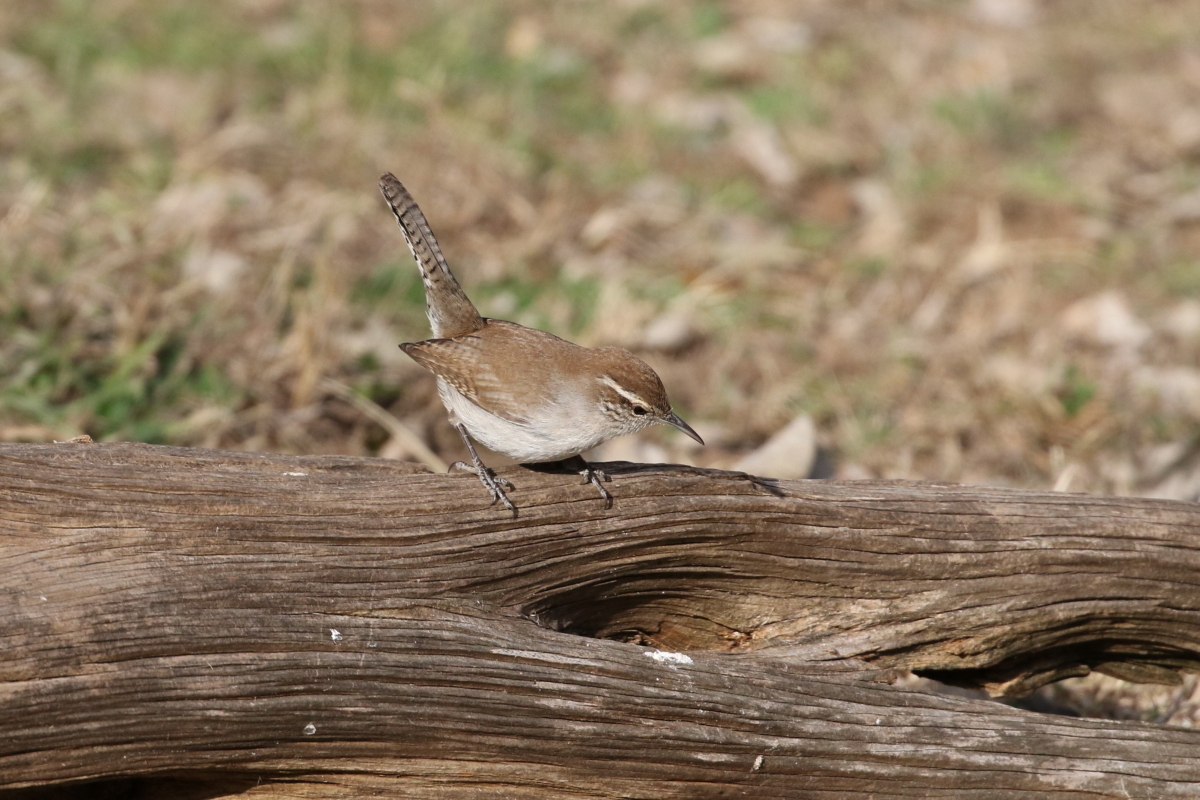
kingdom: Animalia
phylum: Chordata
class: Aves
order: Passeriformes
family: Troglodytidae
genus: Thryomanes
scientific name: Thryomanes bewickii
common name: Bewick's wren
